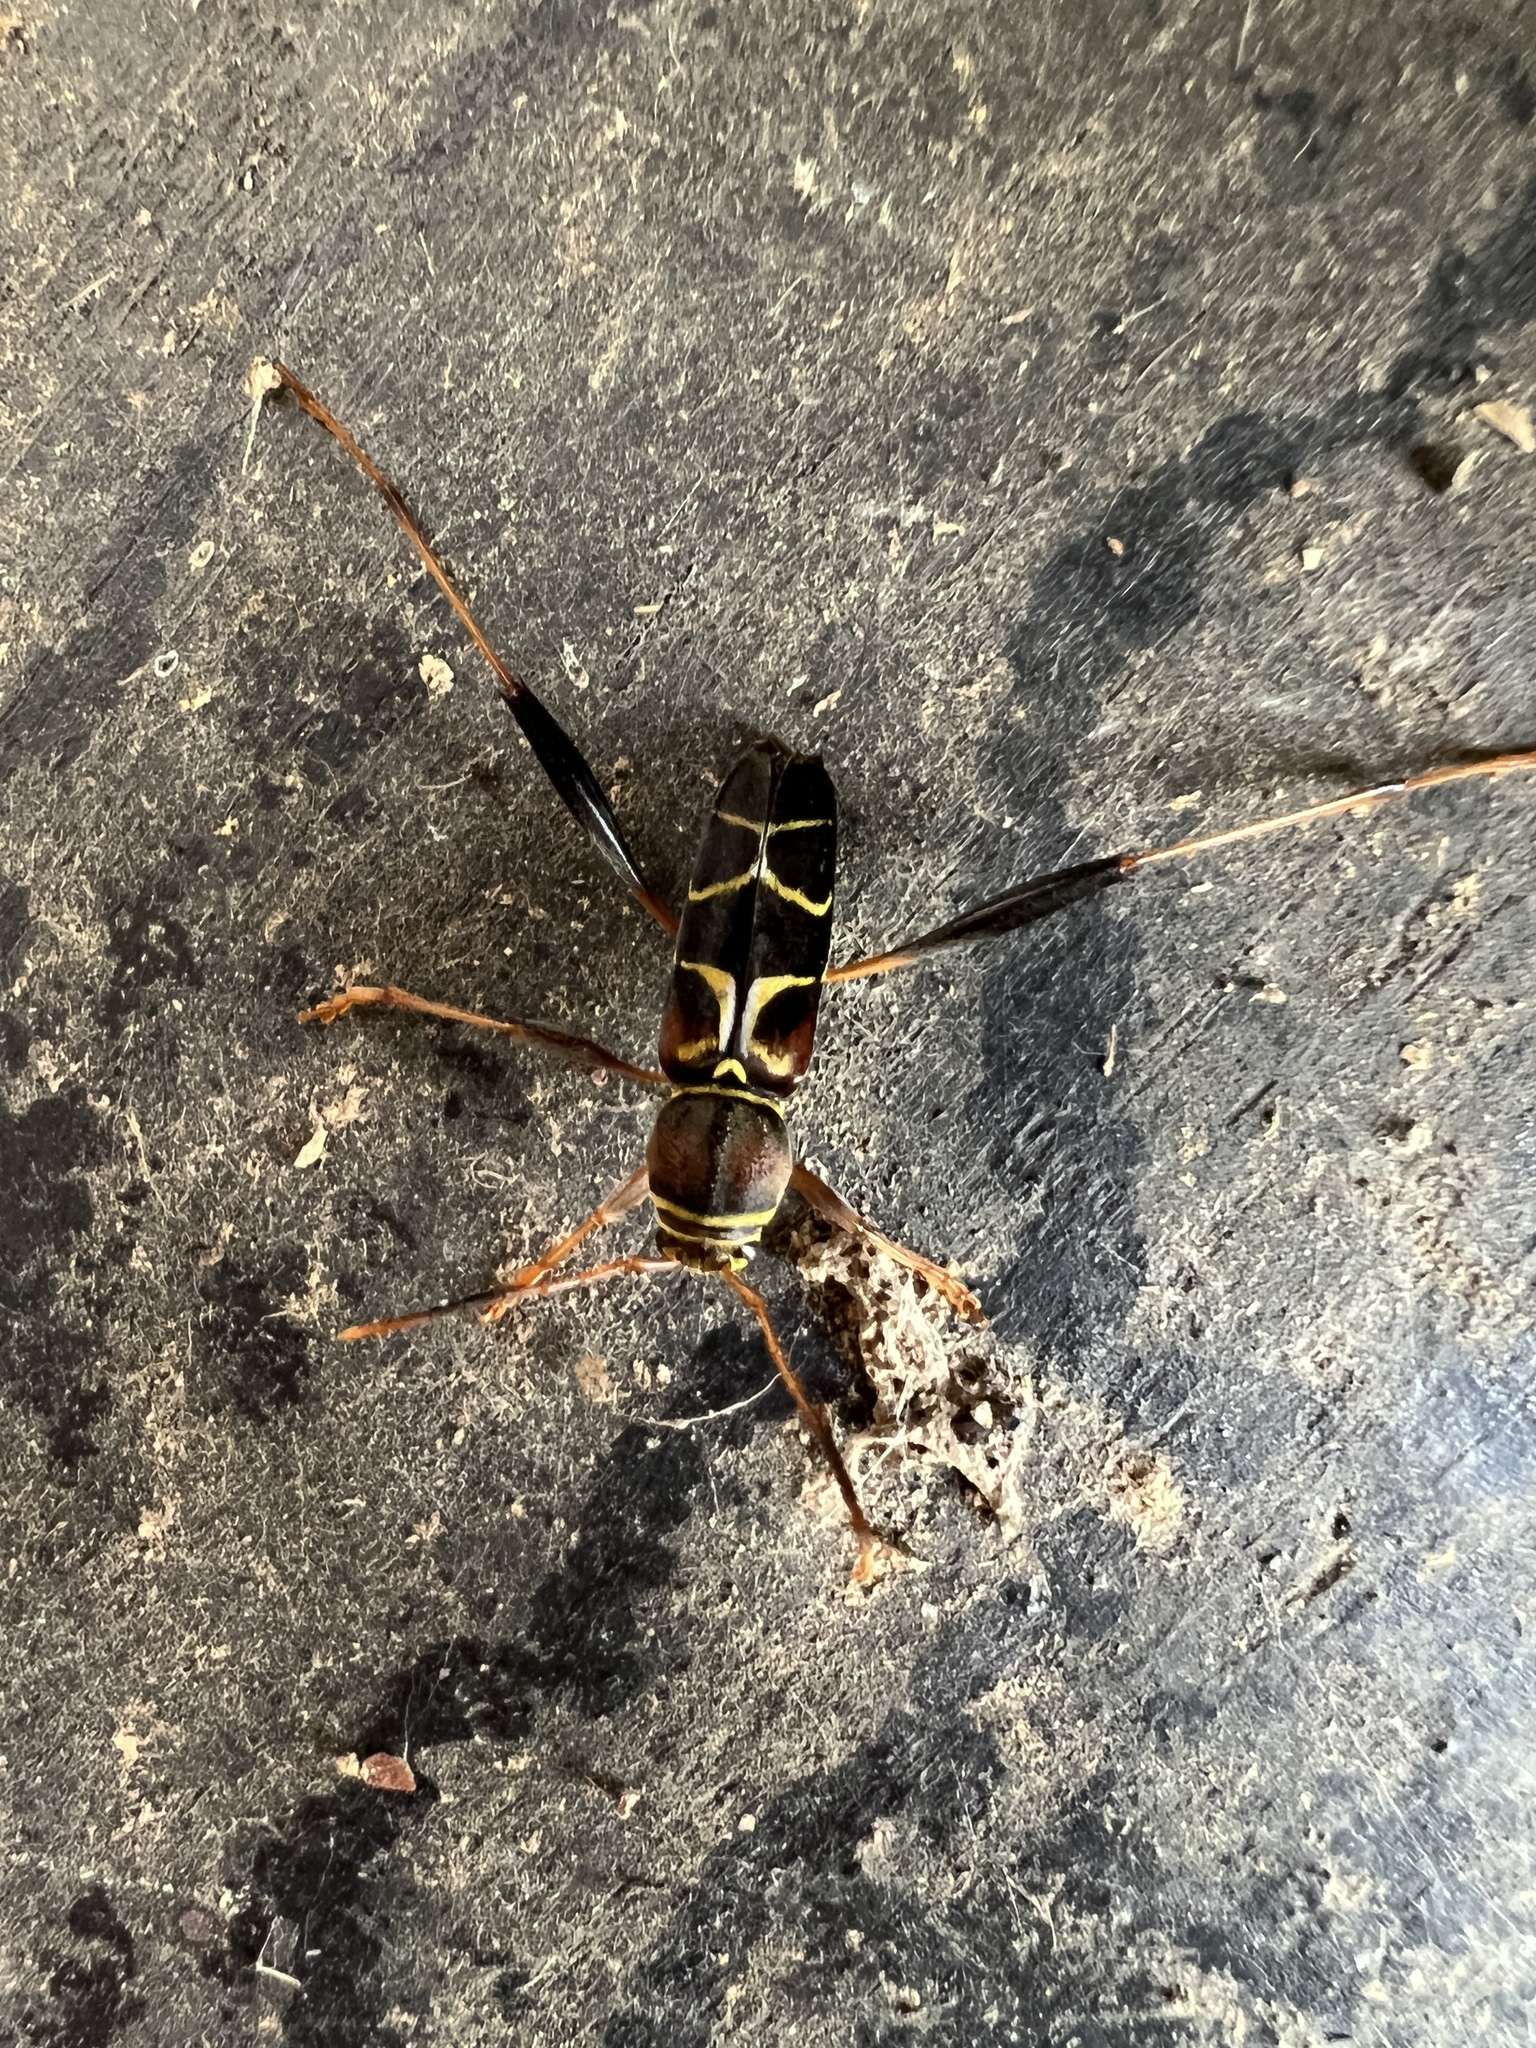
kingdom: Animalia
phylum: Arthropoda
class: Insecta
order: Coleoptera
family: Cerambycidae
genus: Neoclytus
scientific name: Neoclytus mucronatus
